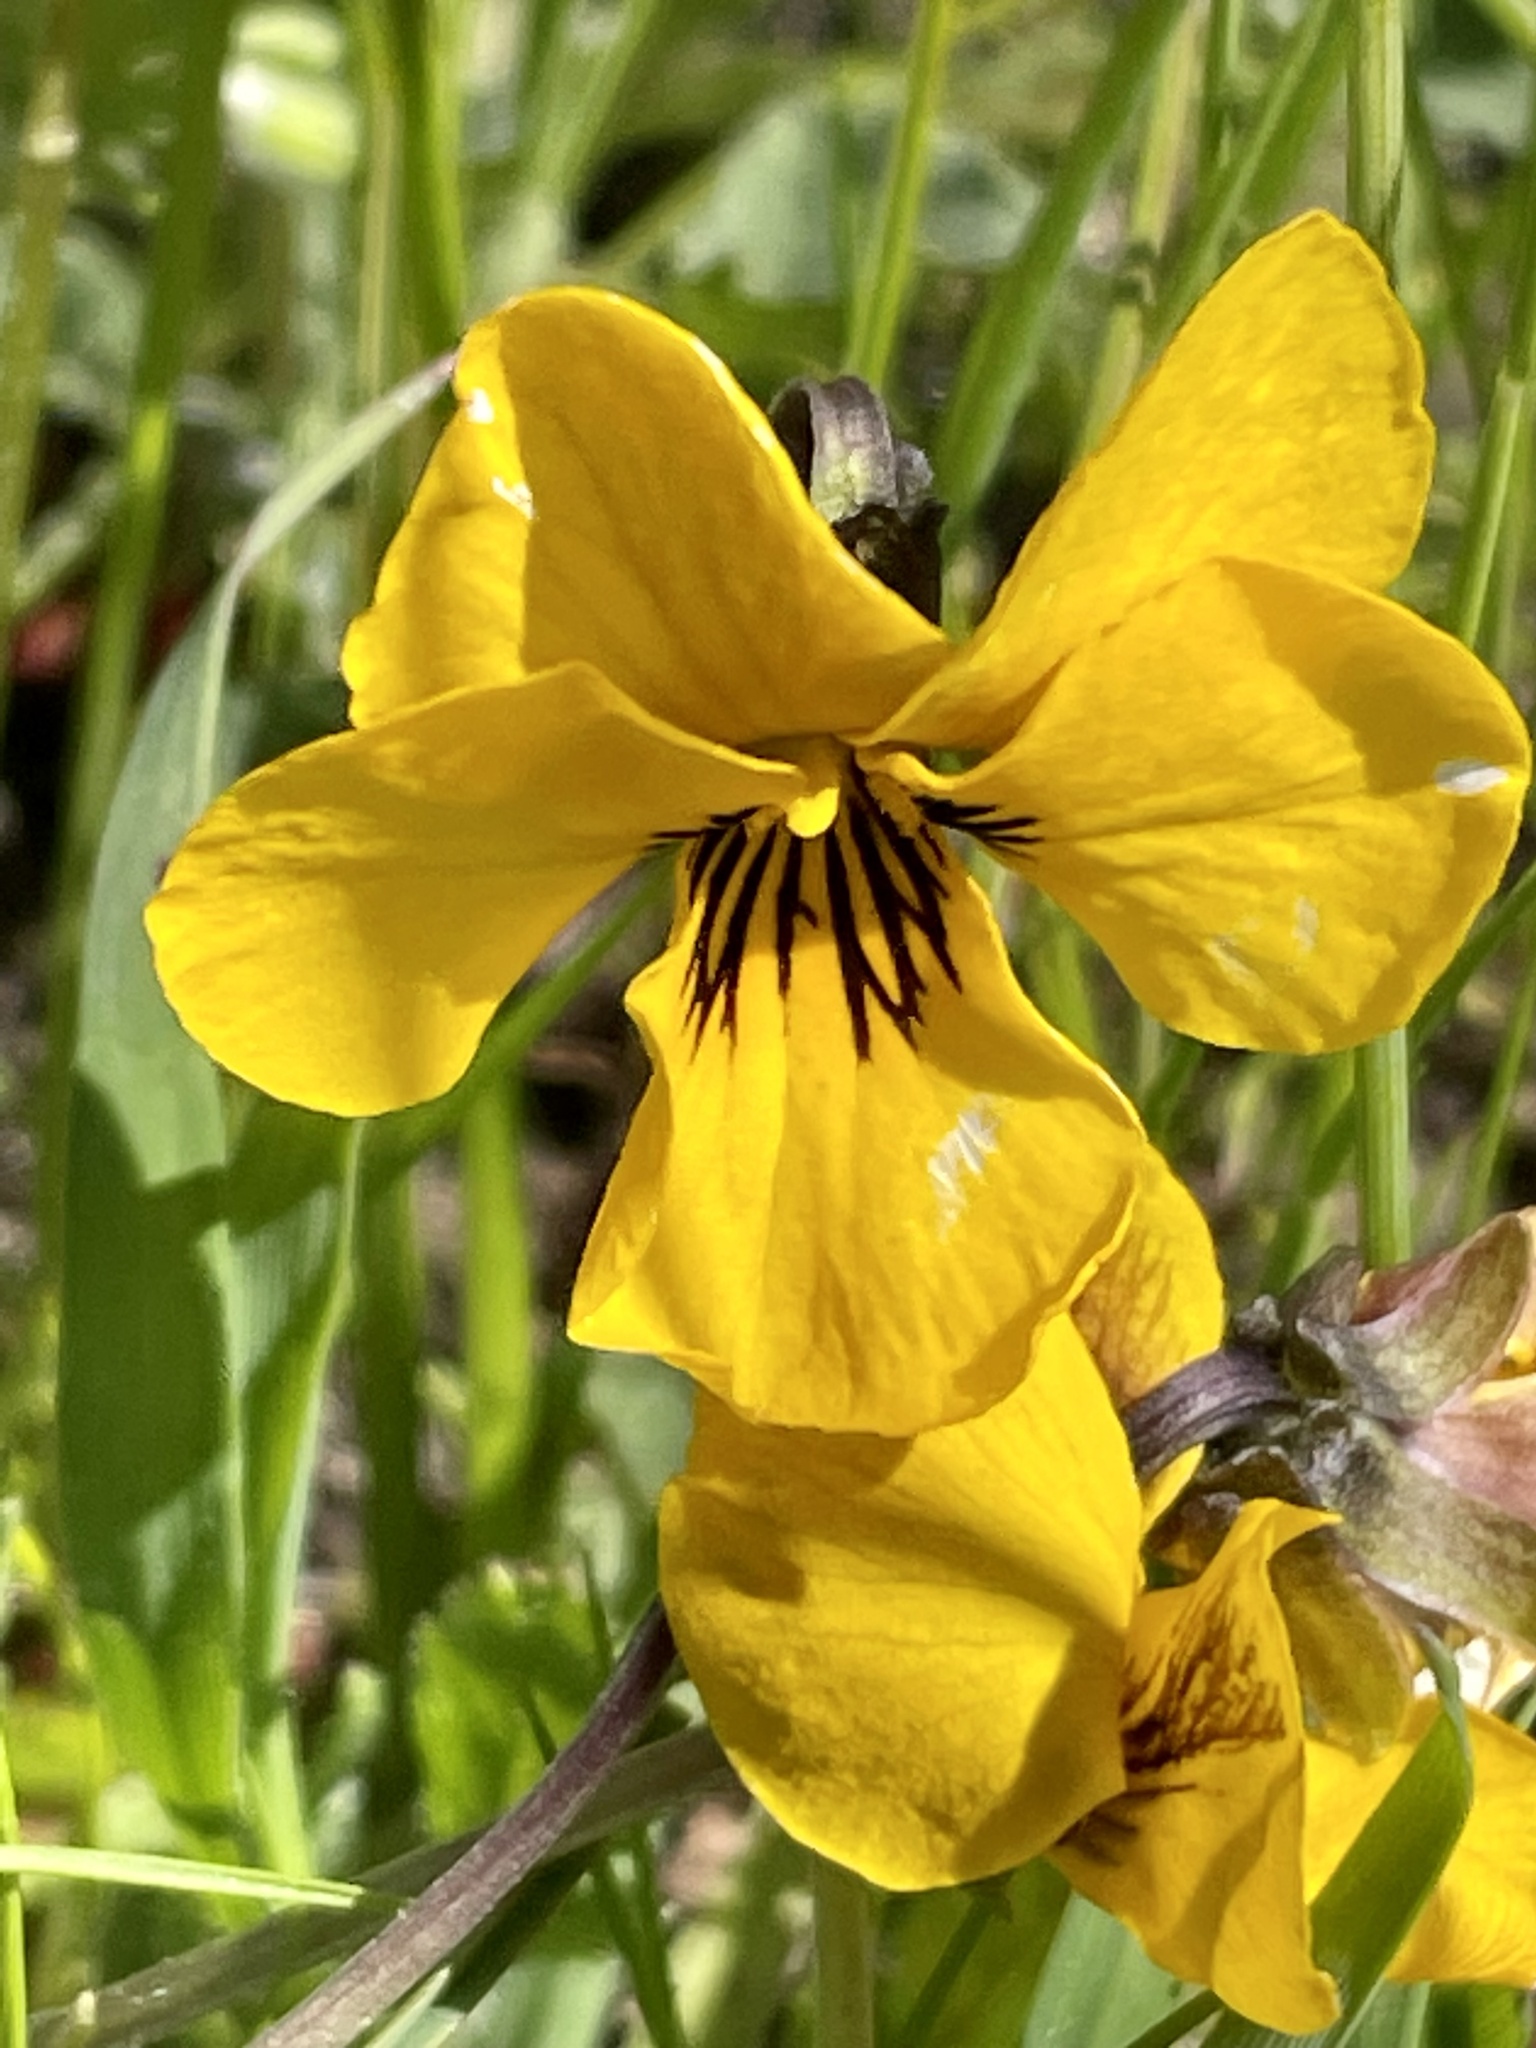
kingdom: Plantae
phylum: Tracheophyta
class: Magnoliopsida
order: Malpighiales
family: Violaceae
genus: Viola
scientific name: Viola pedunculata
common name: California golden violet
